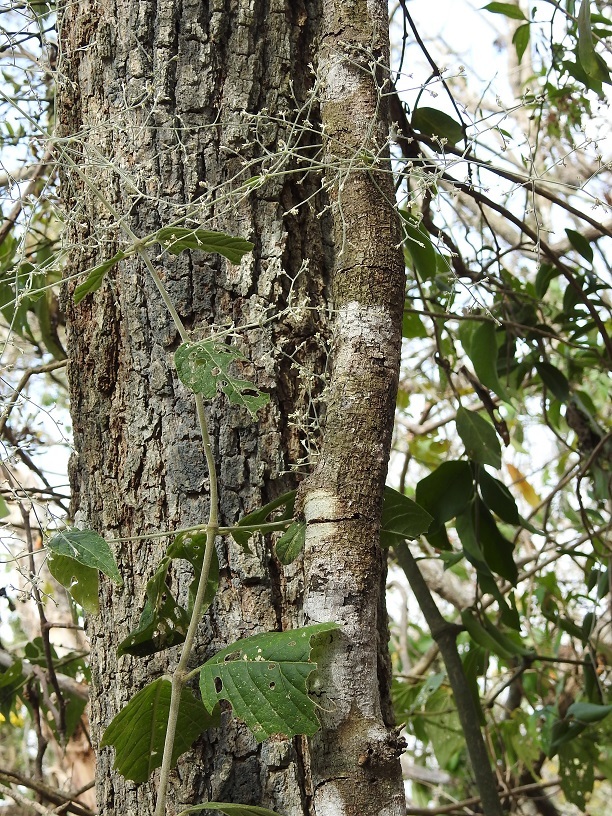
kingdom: Plantae
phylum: Tracheophyta
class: Magnoliopsida
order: Caryophyllales
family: Amaranthaceae
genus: Iresine
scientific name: Iresine latifolia
